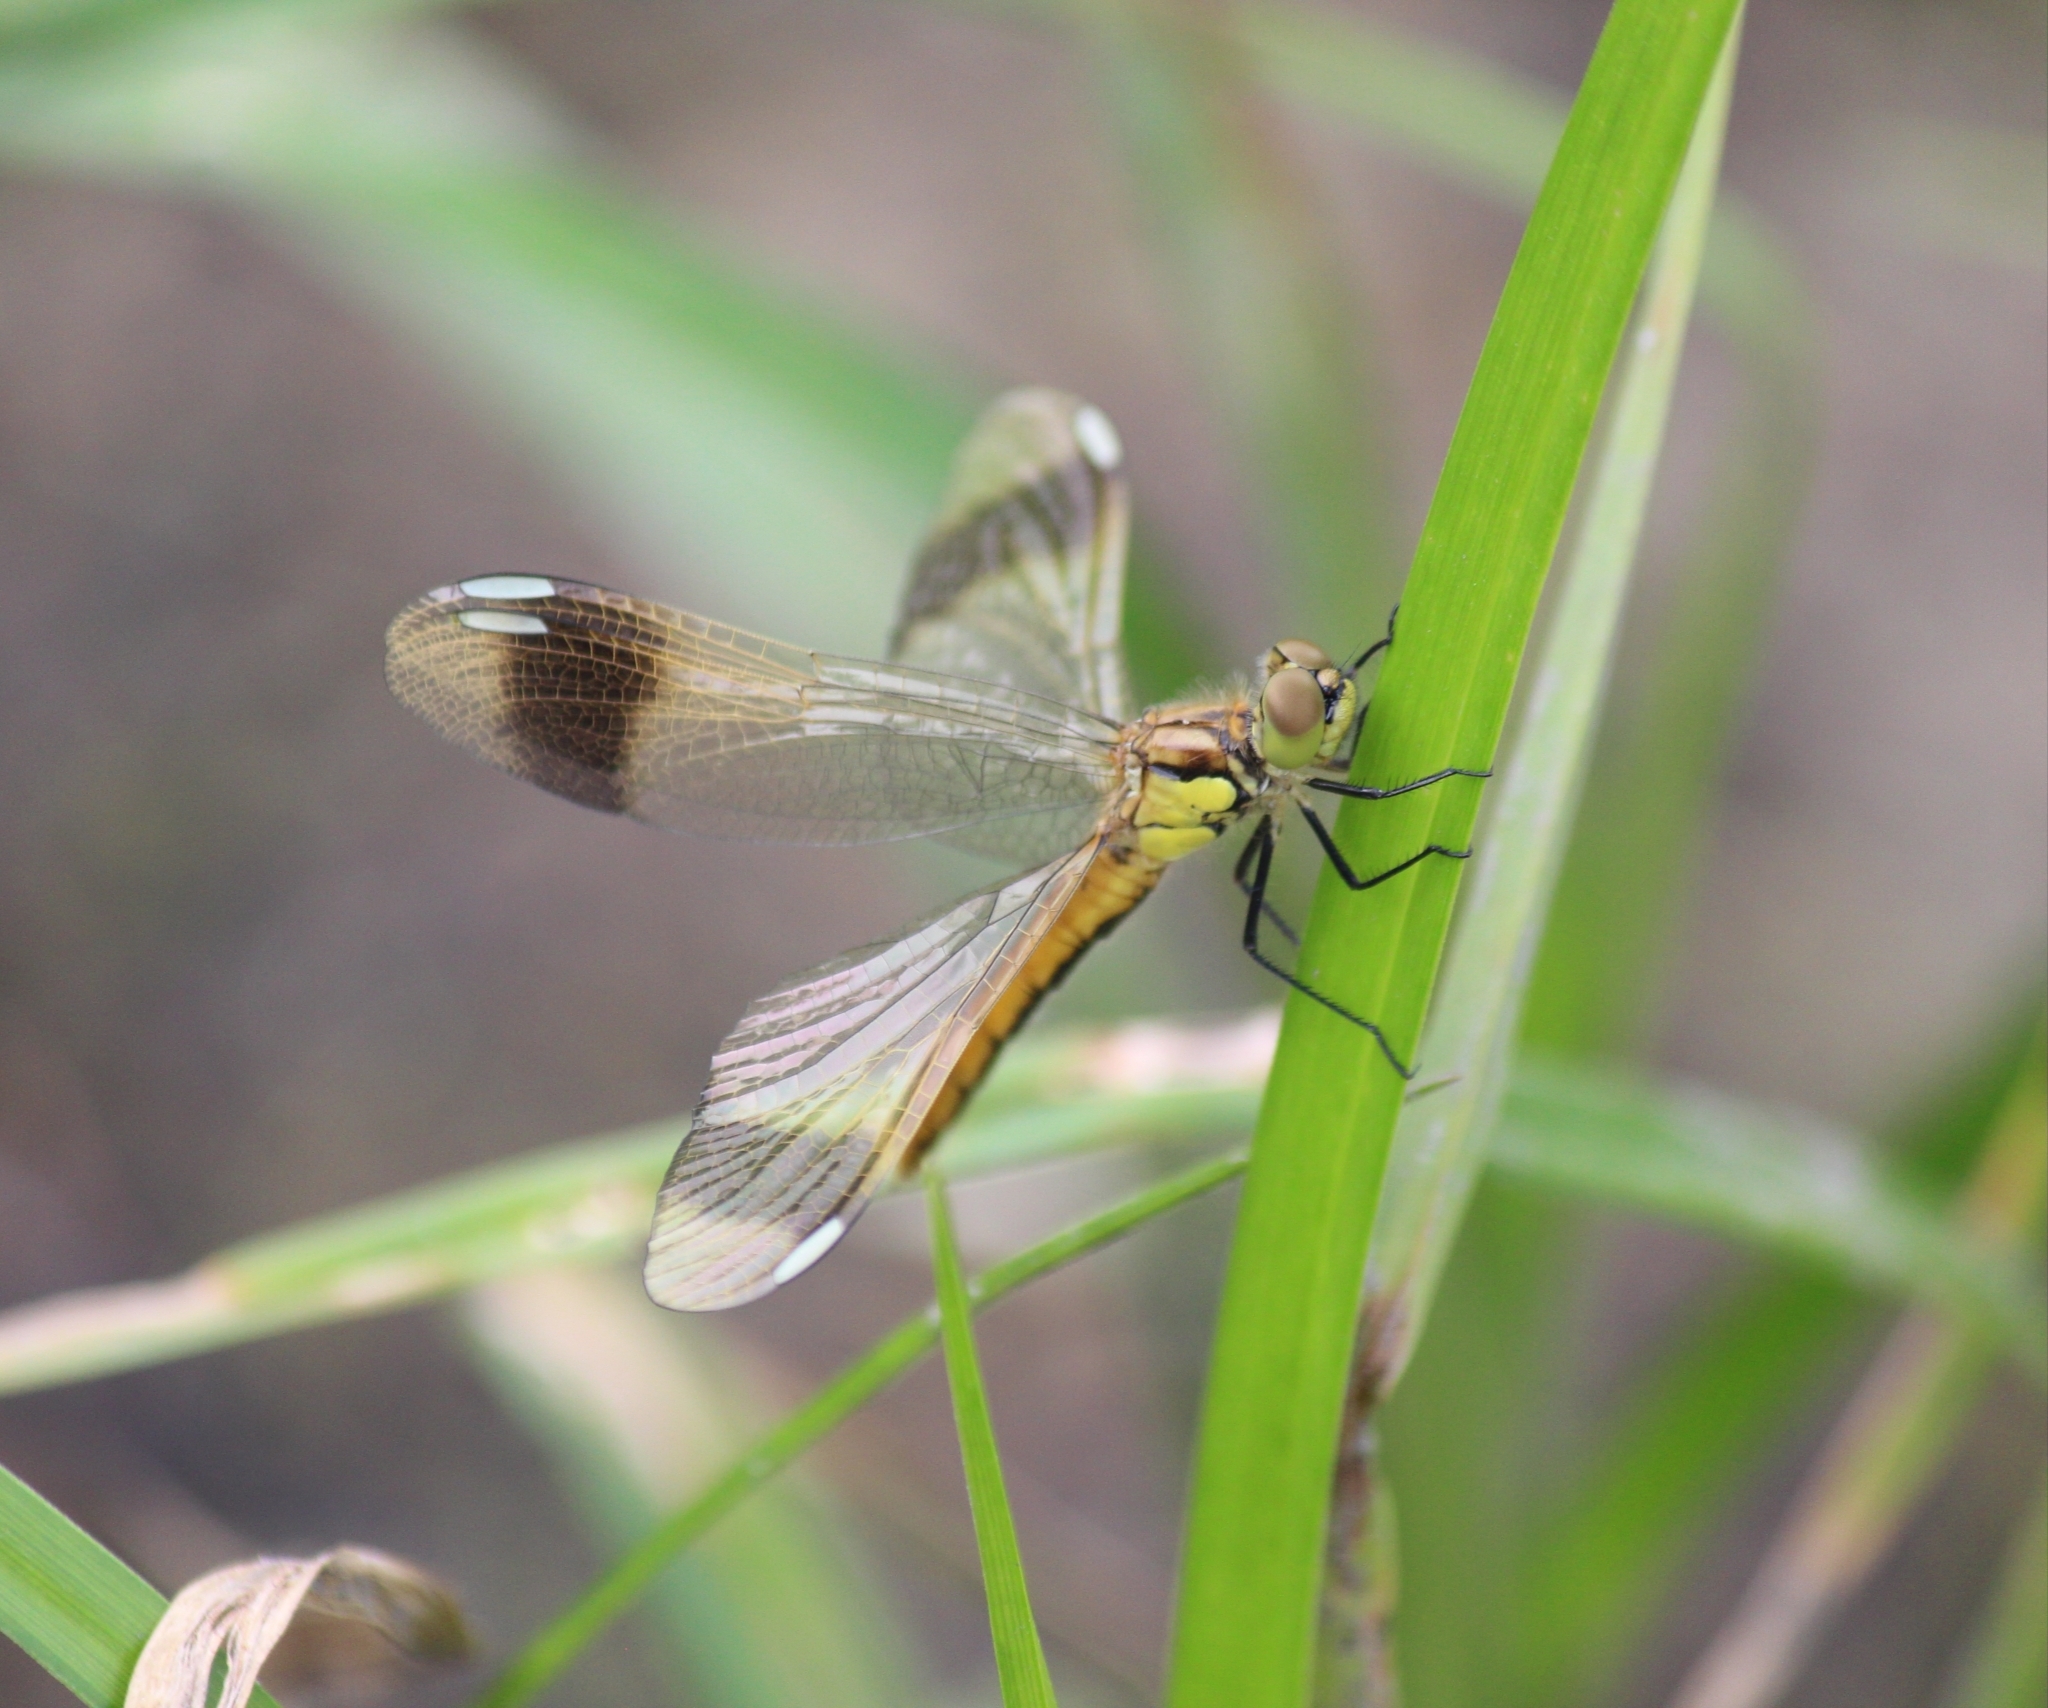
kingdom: Animalia
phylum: Arthropoda
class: Insecta
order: Odonata
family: Libellulidae
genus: Sympetrum
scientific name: Sympetrum pedemontanum
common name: Banded darter
